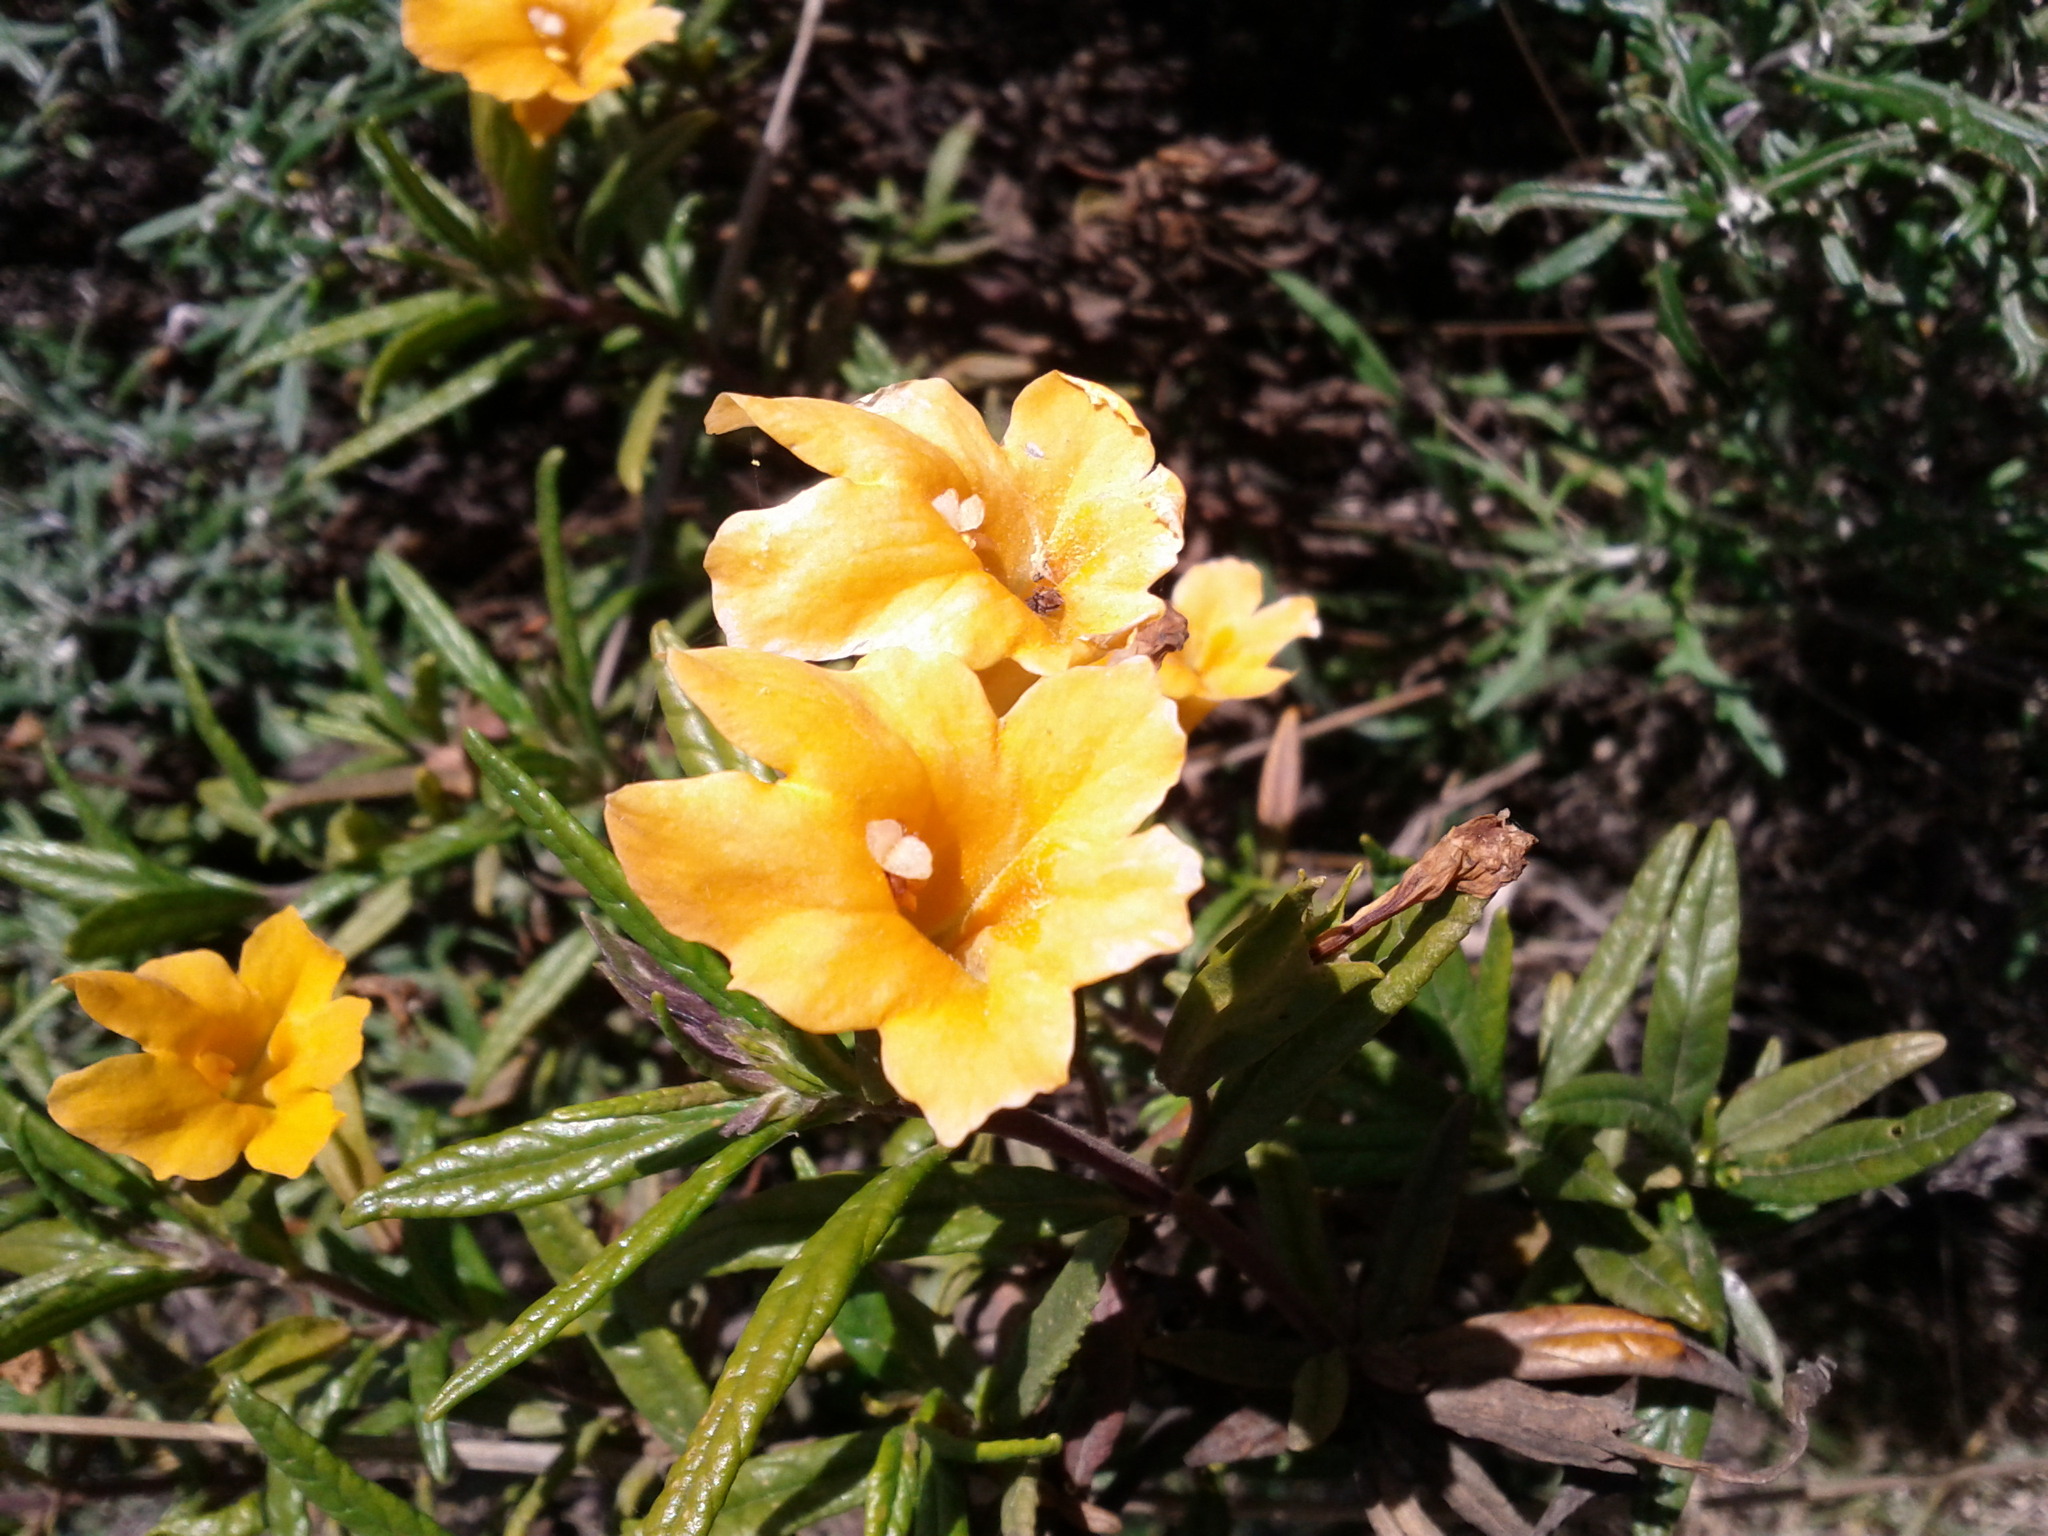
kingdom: Plantae
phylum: Tracheophyta
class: Magnoliopsida
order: Lamiales
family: Phrymaceae
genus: Diplacus
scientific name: Diplacus aurantiacus
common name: Bush monkey-flower
